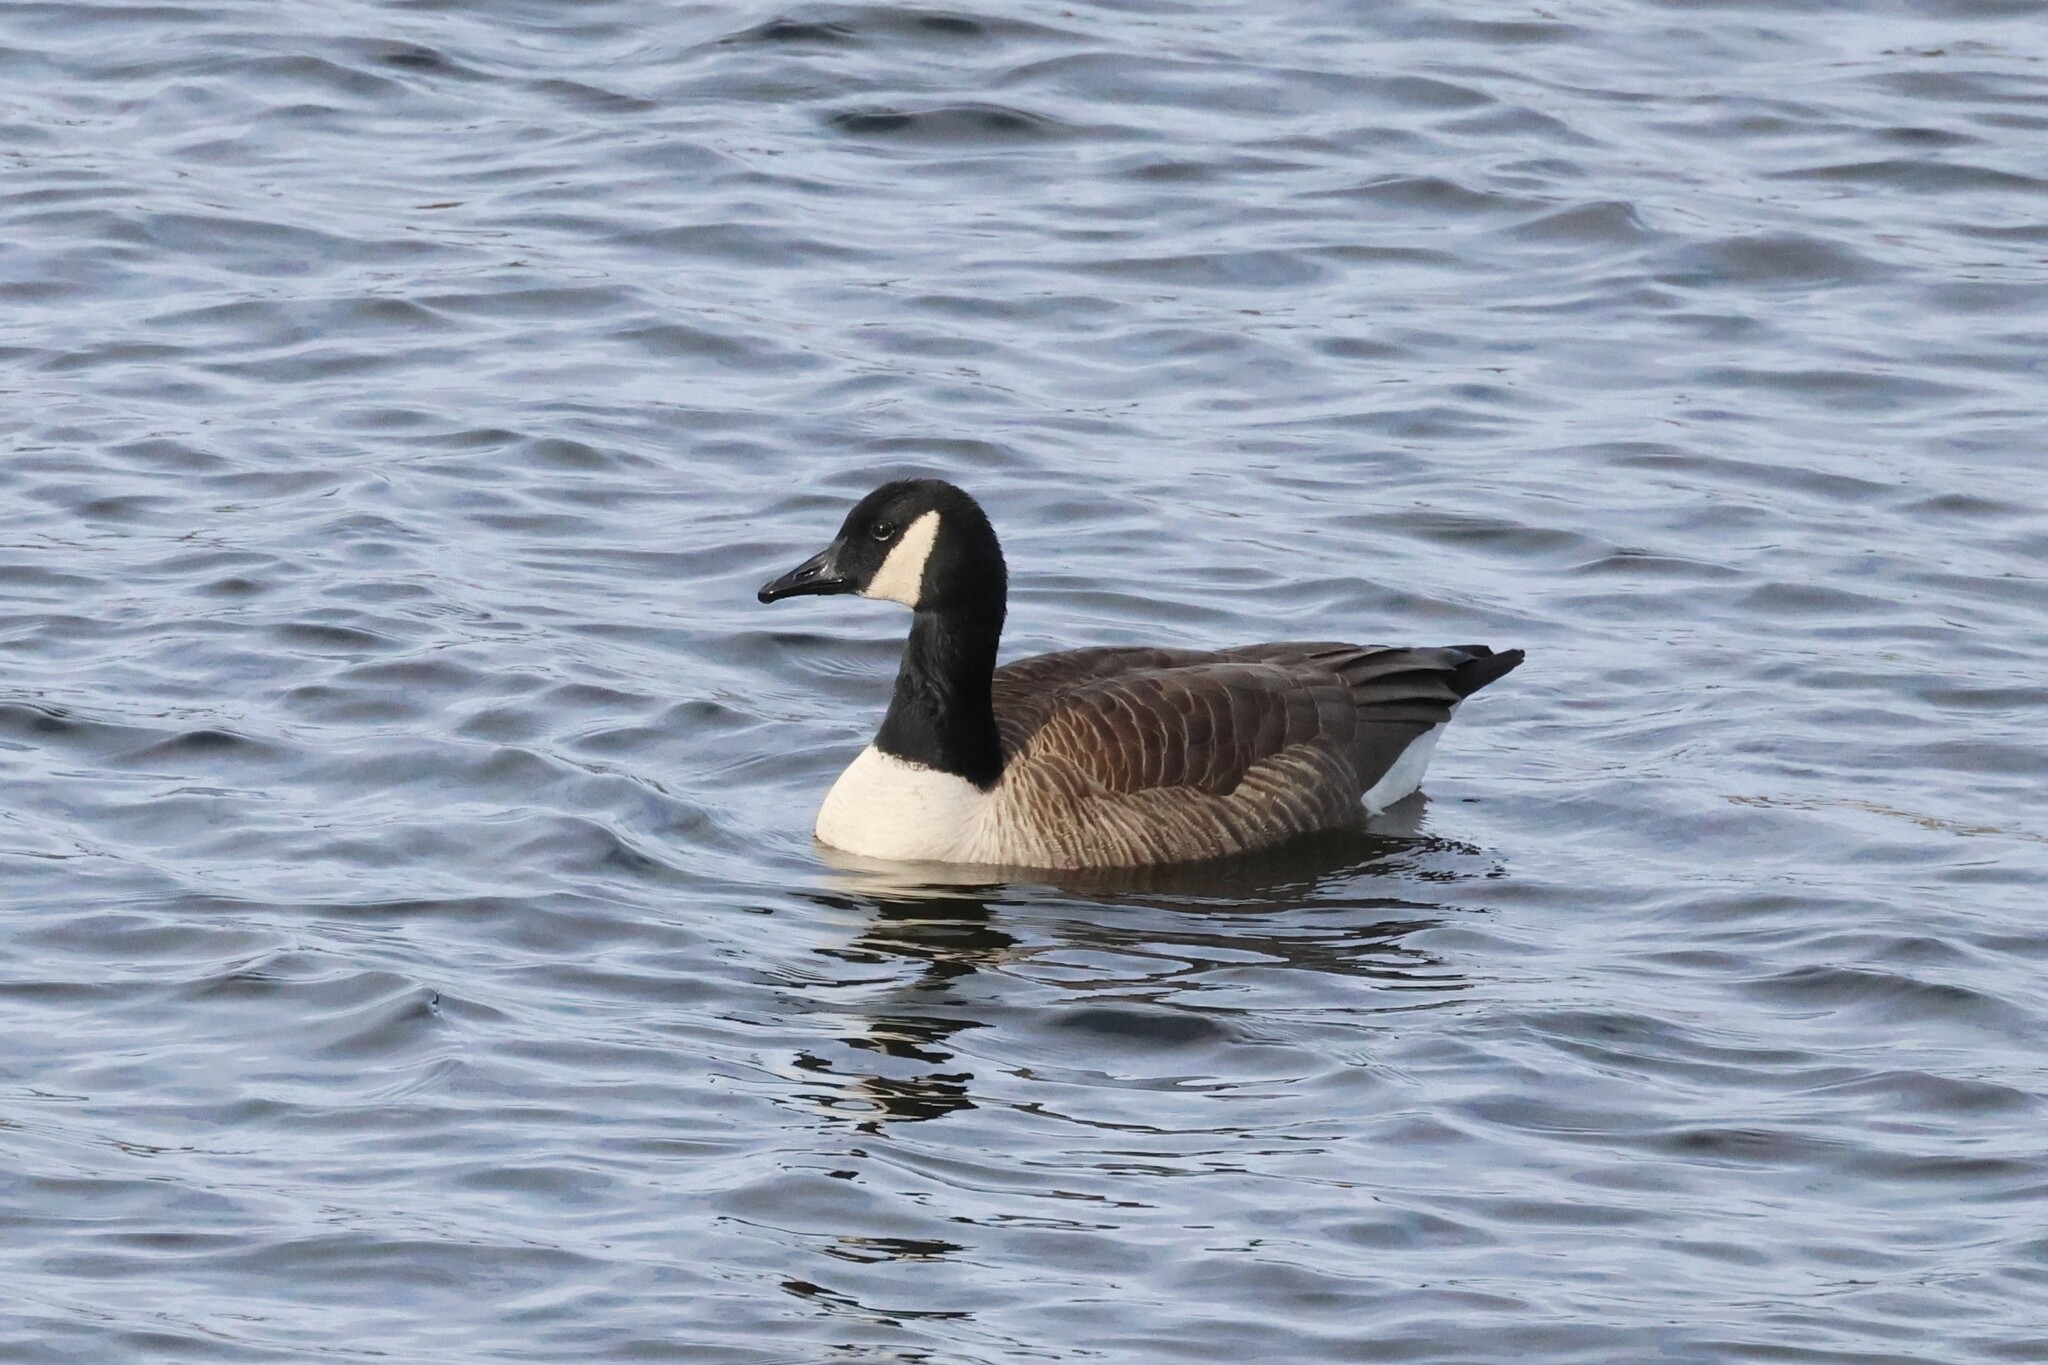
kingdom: Animalia
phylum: Chordata
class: Aves
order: Anseriformes
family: Anatidae
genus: Branta
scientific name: Branta canadensis
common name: Canada goose
